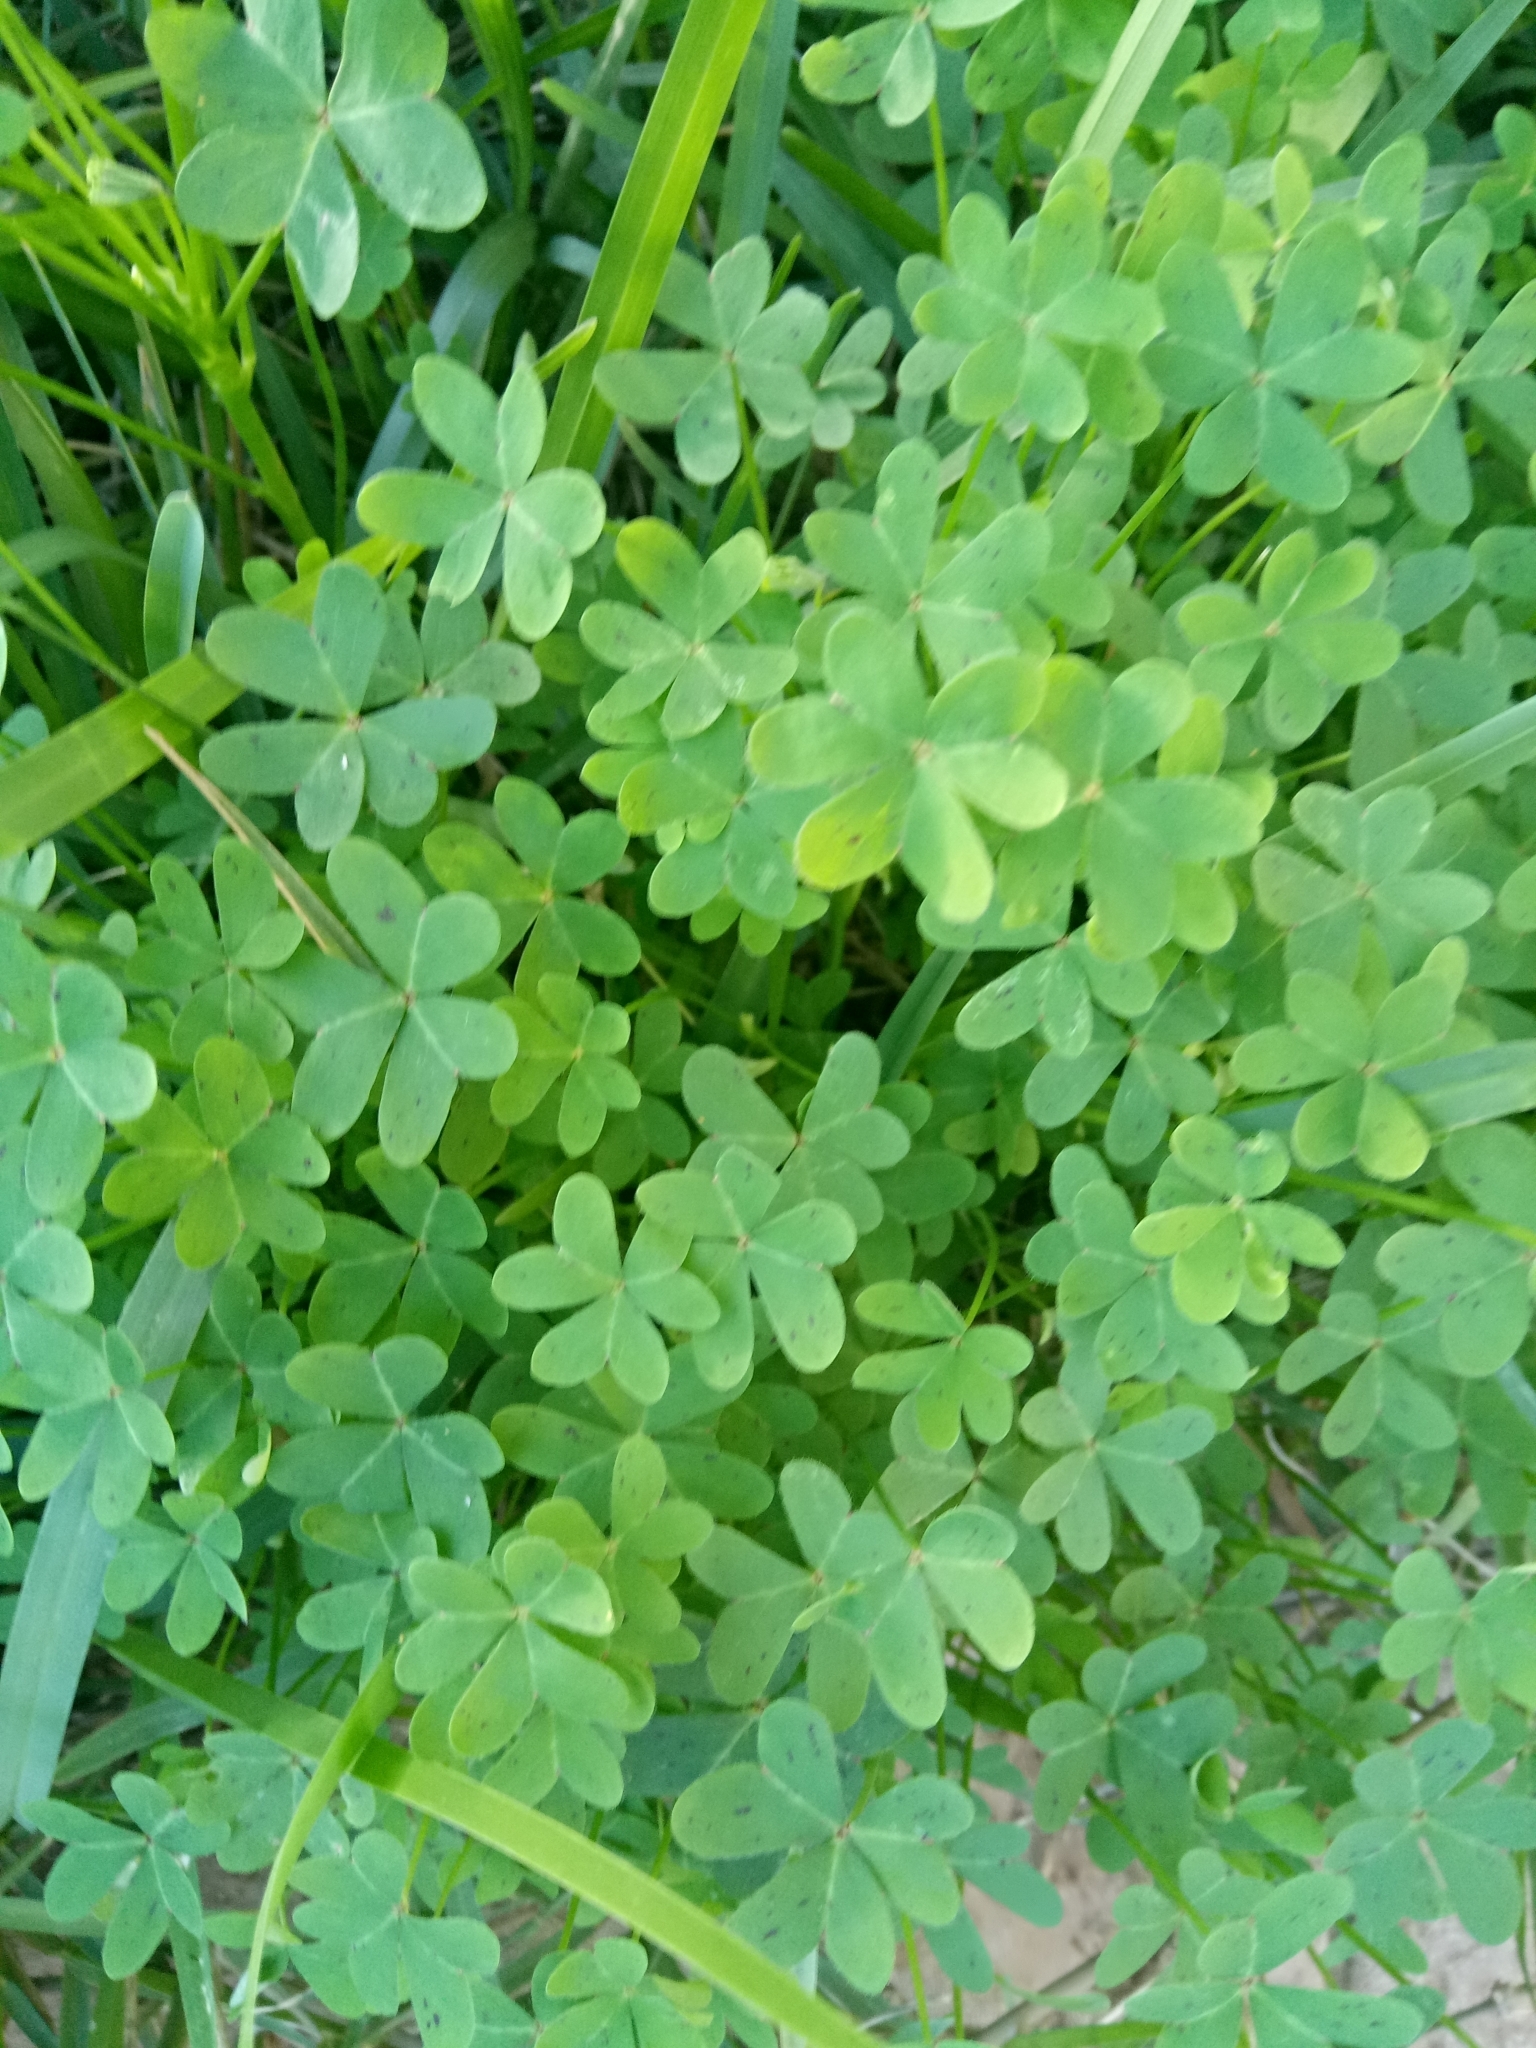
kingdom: Plantae
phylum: Tracheophyta
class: Magnoliopsida
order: Oxalidales
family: Oxalidaceae
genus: Oxalis
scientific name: Oxalis pes-caprae
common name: Bermuda-buttercup
